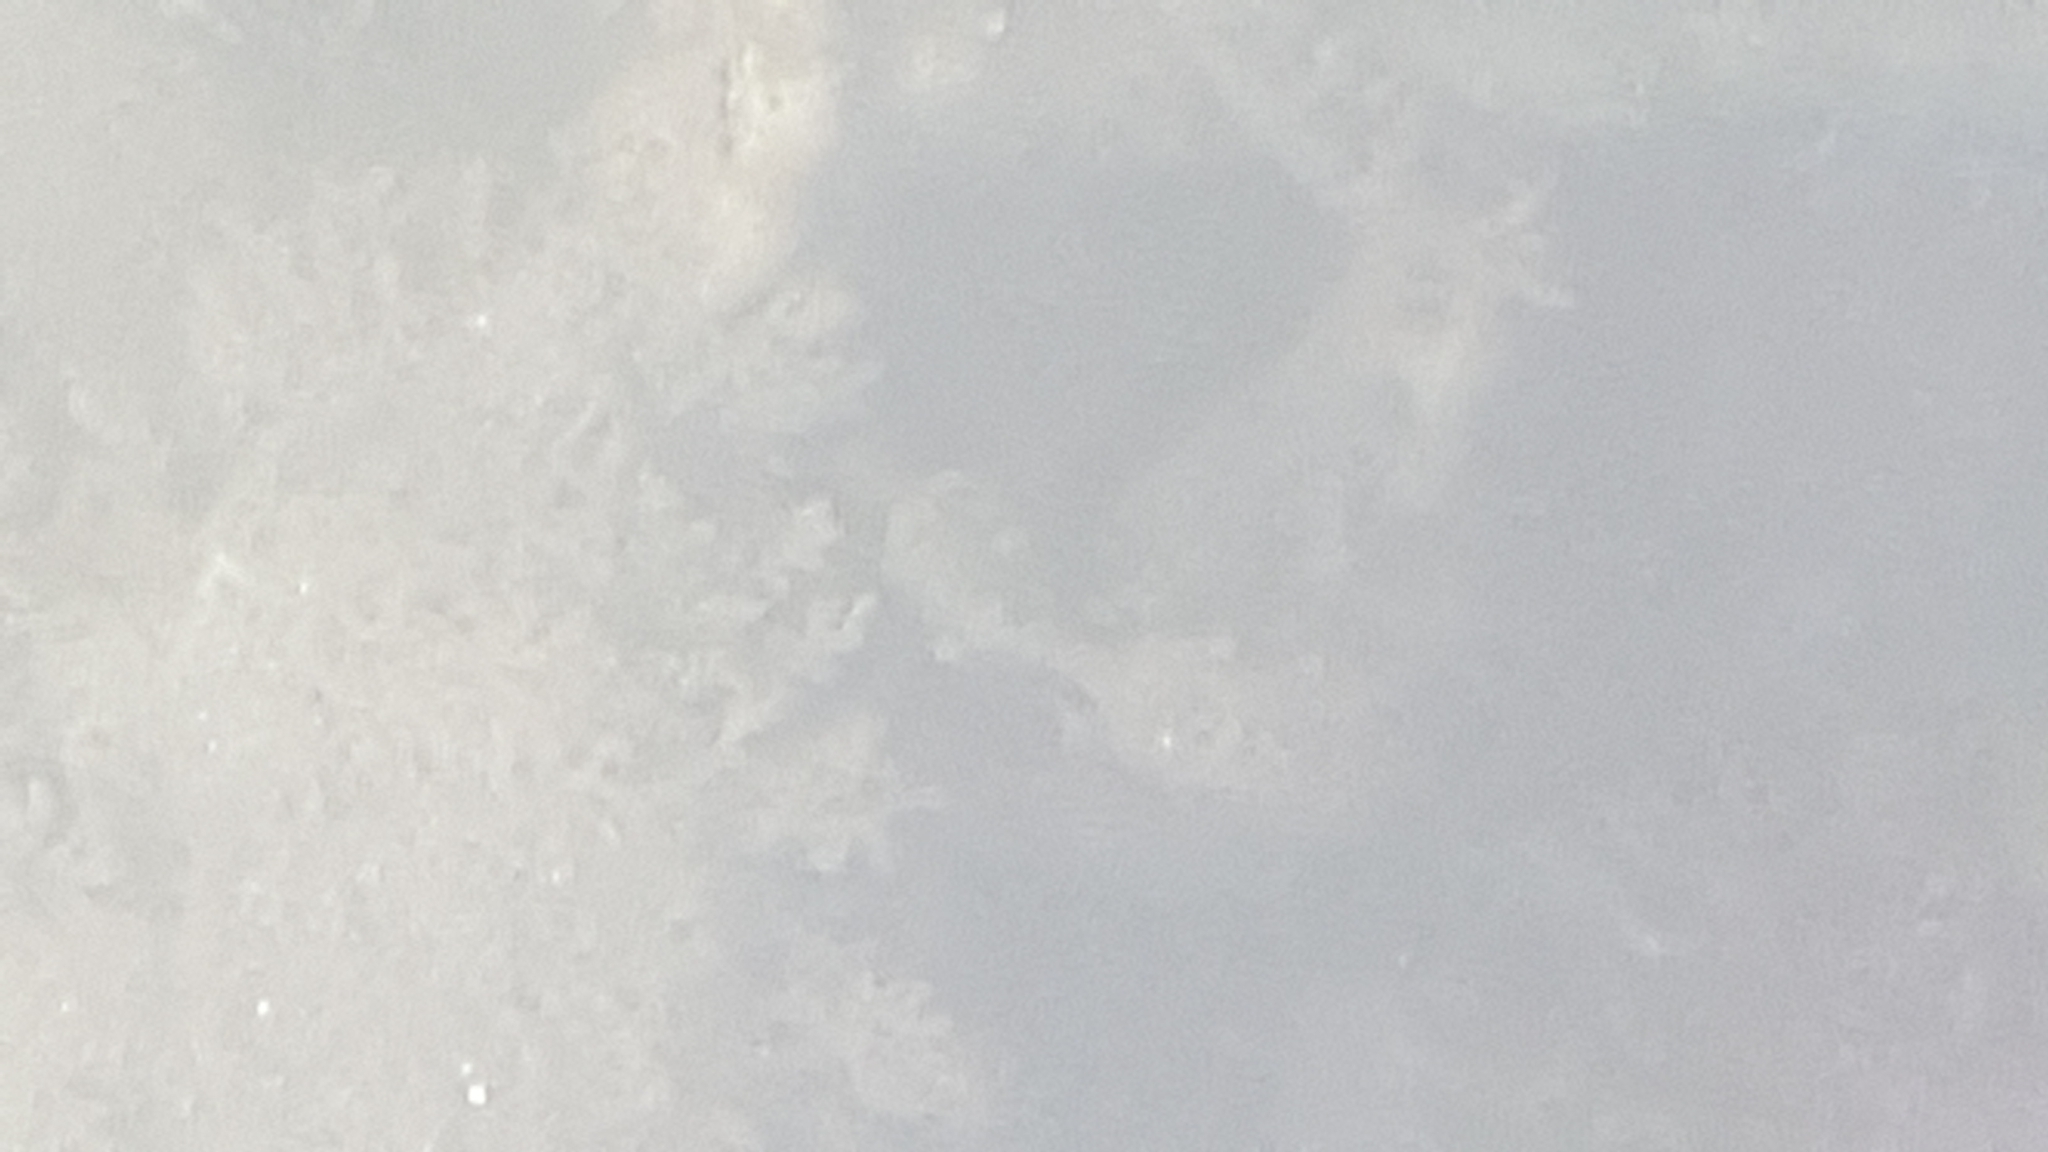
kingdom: Animalia
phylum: Chordata
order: Syngnathiformes
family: Syngnathidae
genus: Hippocampus
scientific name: Hippocampus capensis
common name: Cape seahorse
